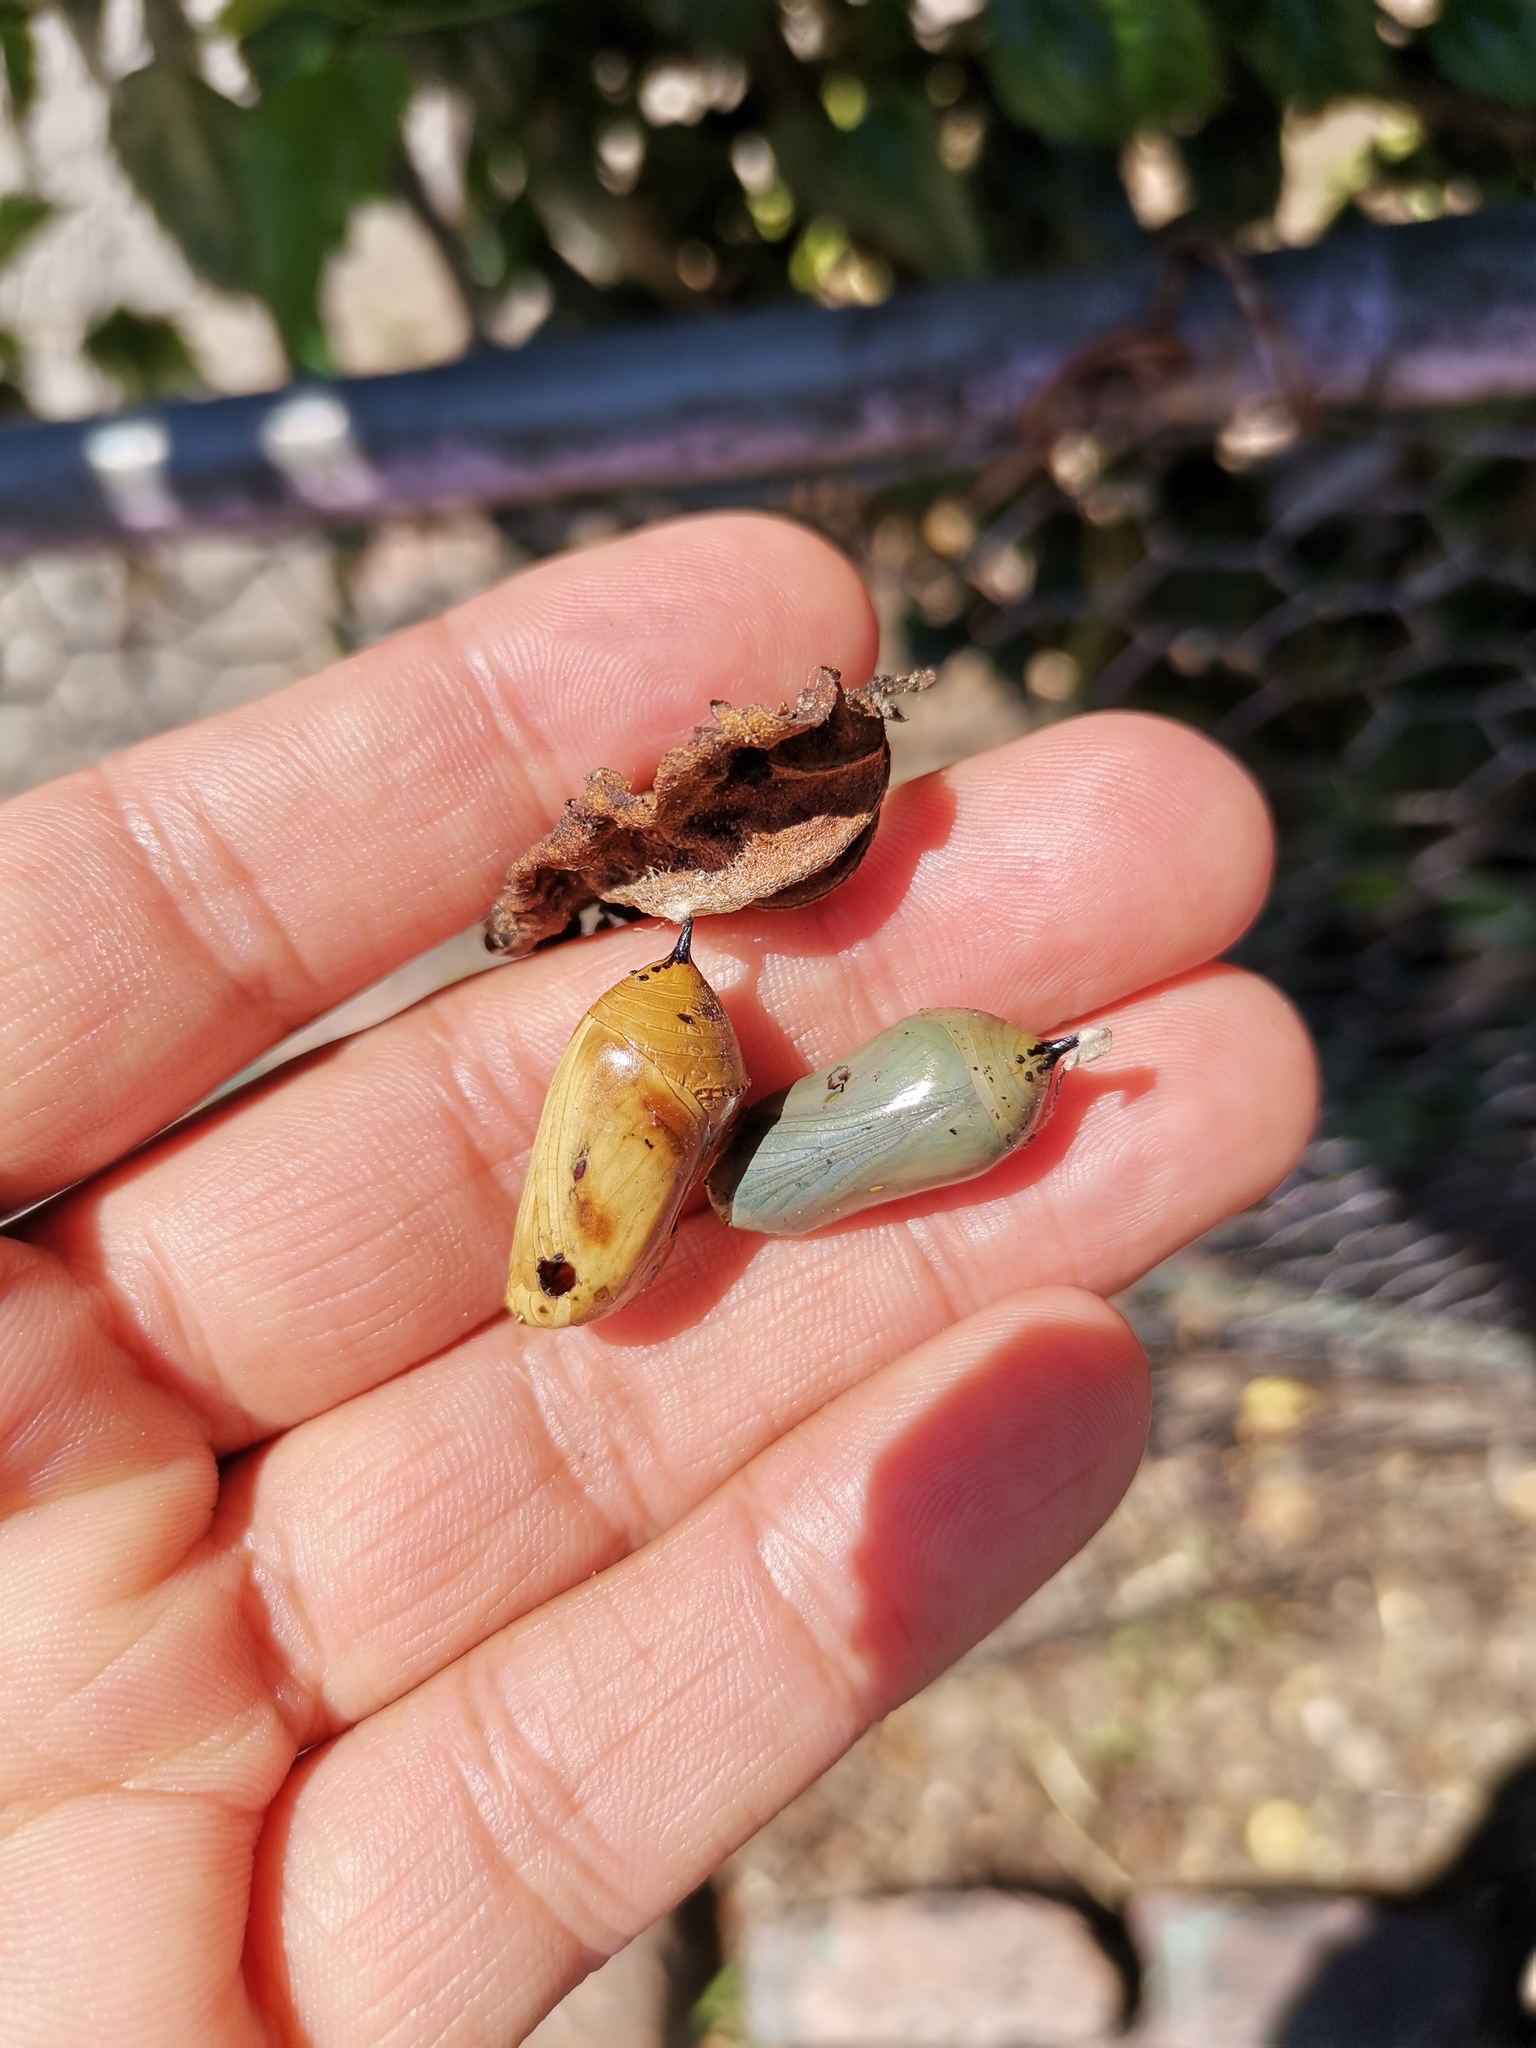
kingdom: Animalia
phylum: Arthropoda
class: Insecta
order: Lepidoptera
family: Nymphalidae
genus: Danaus
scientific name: Danaus plexippus
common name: Monarch
